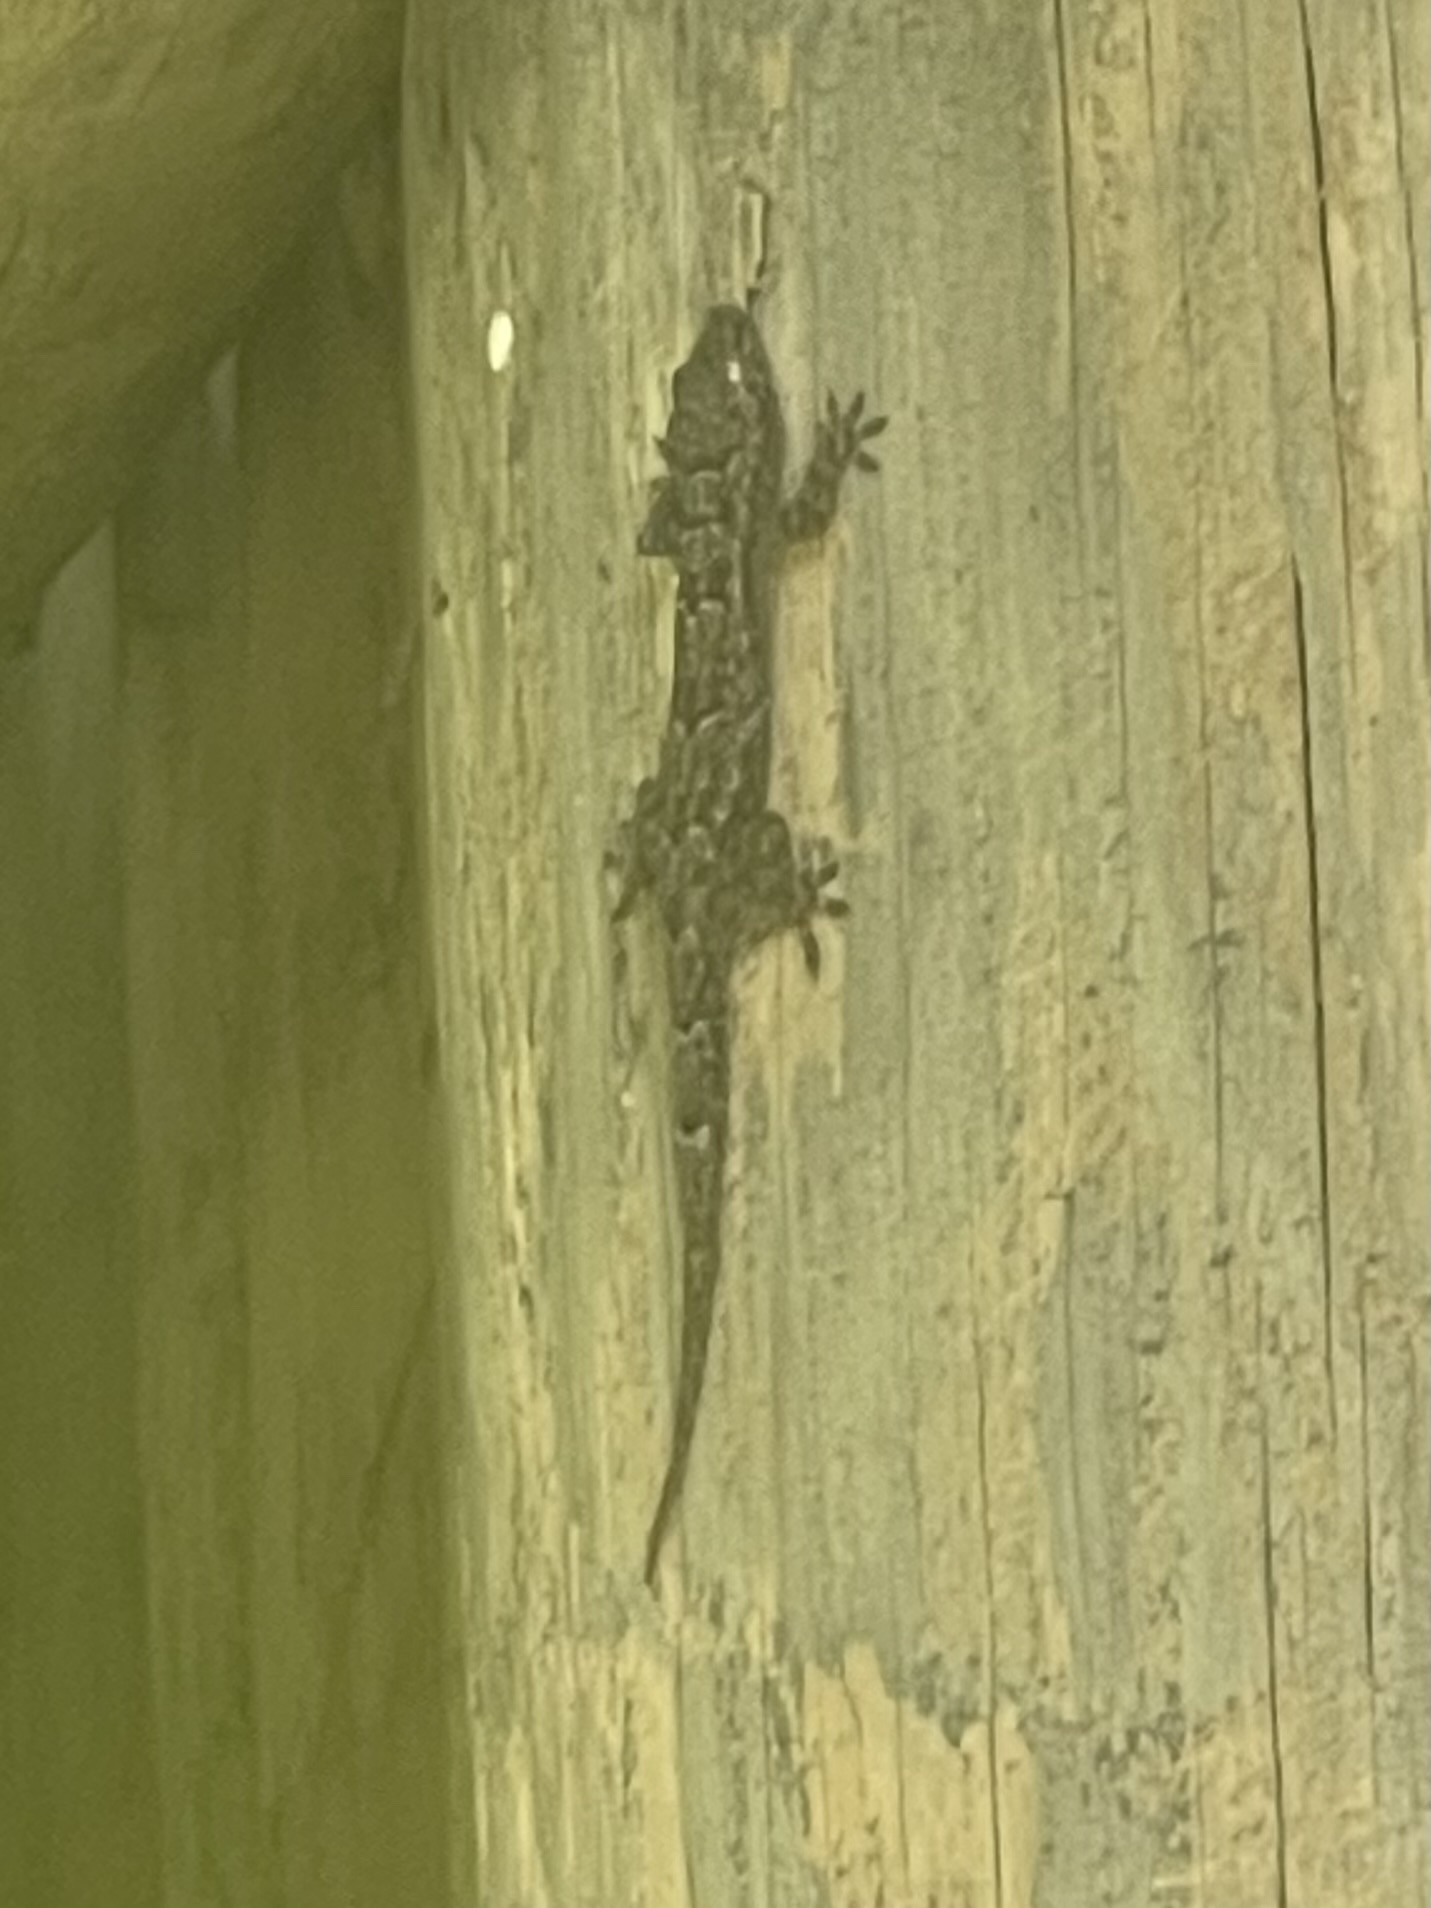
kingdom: Animalia
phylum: Chordata
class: Squamata
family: Gekkonidae
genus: Hemidactylus
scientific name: Hemidactylus mabouia
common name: House gecko
